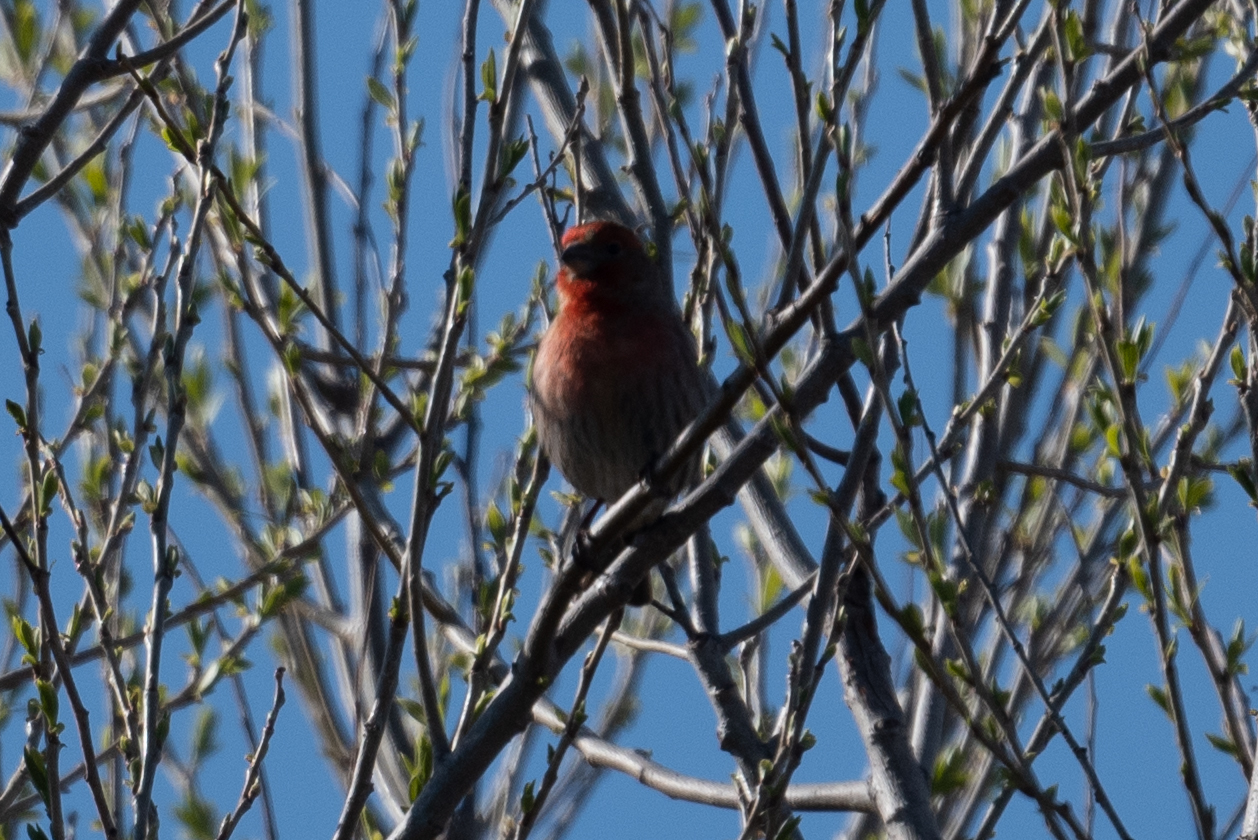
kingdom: Animalia
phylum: Chordata
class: Aves
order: Passeriformes
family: Fringillidae
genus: Haemorhous
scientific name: Haemorhous mexicanus
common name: House finch
